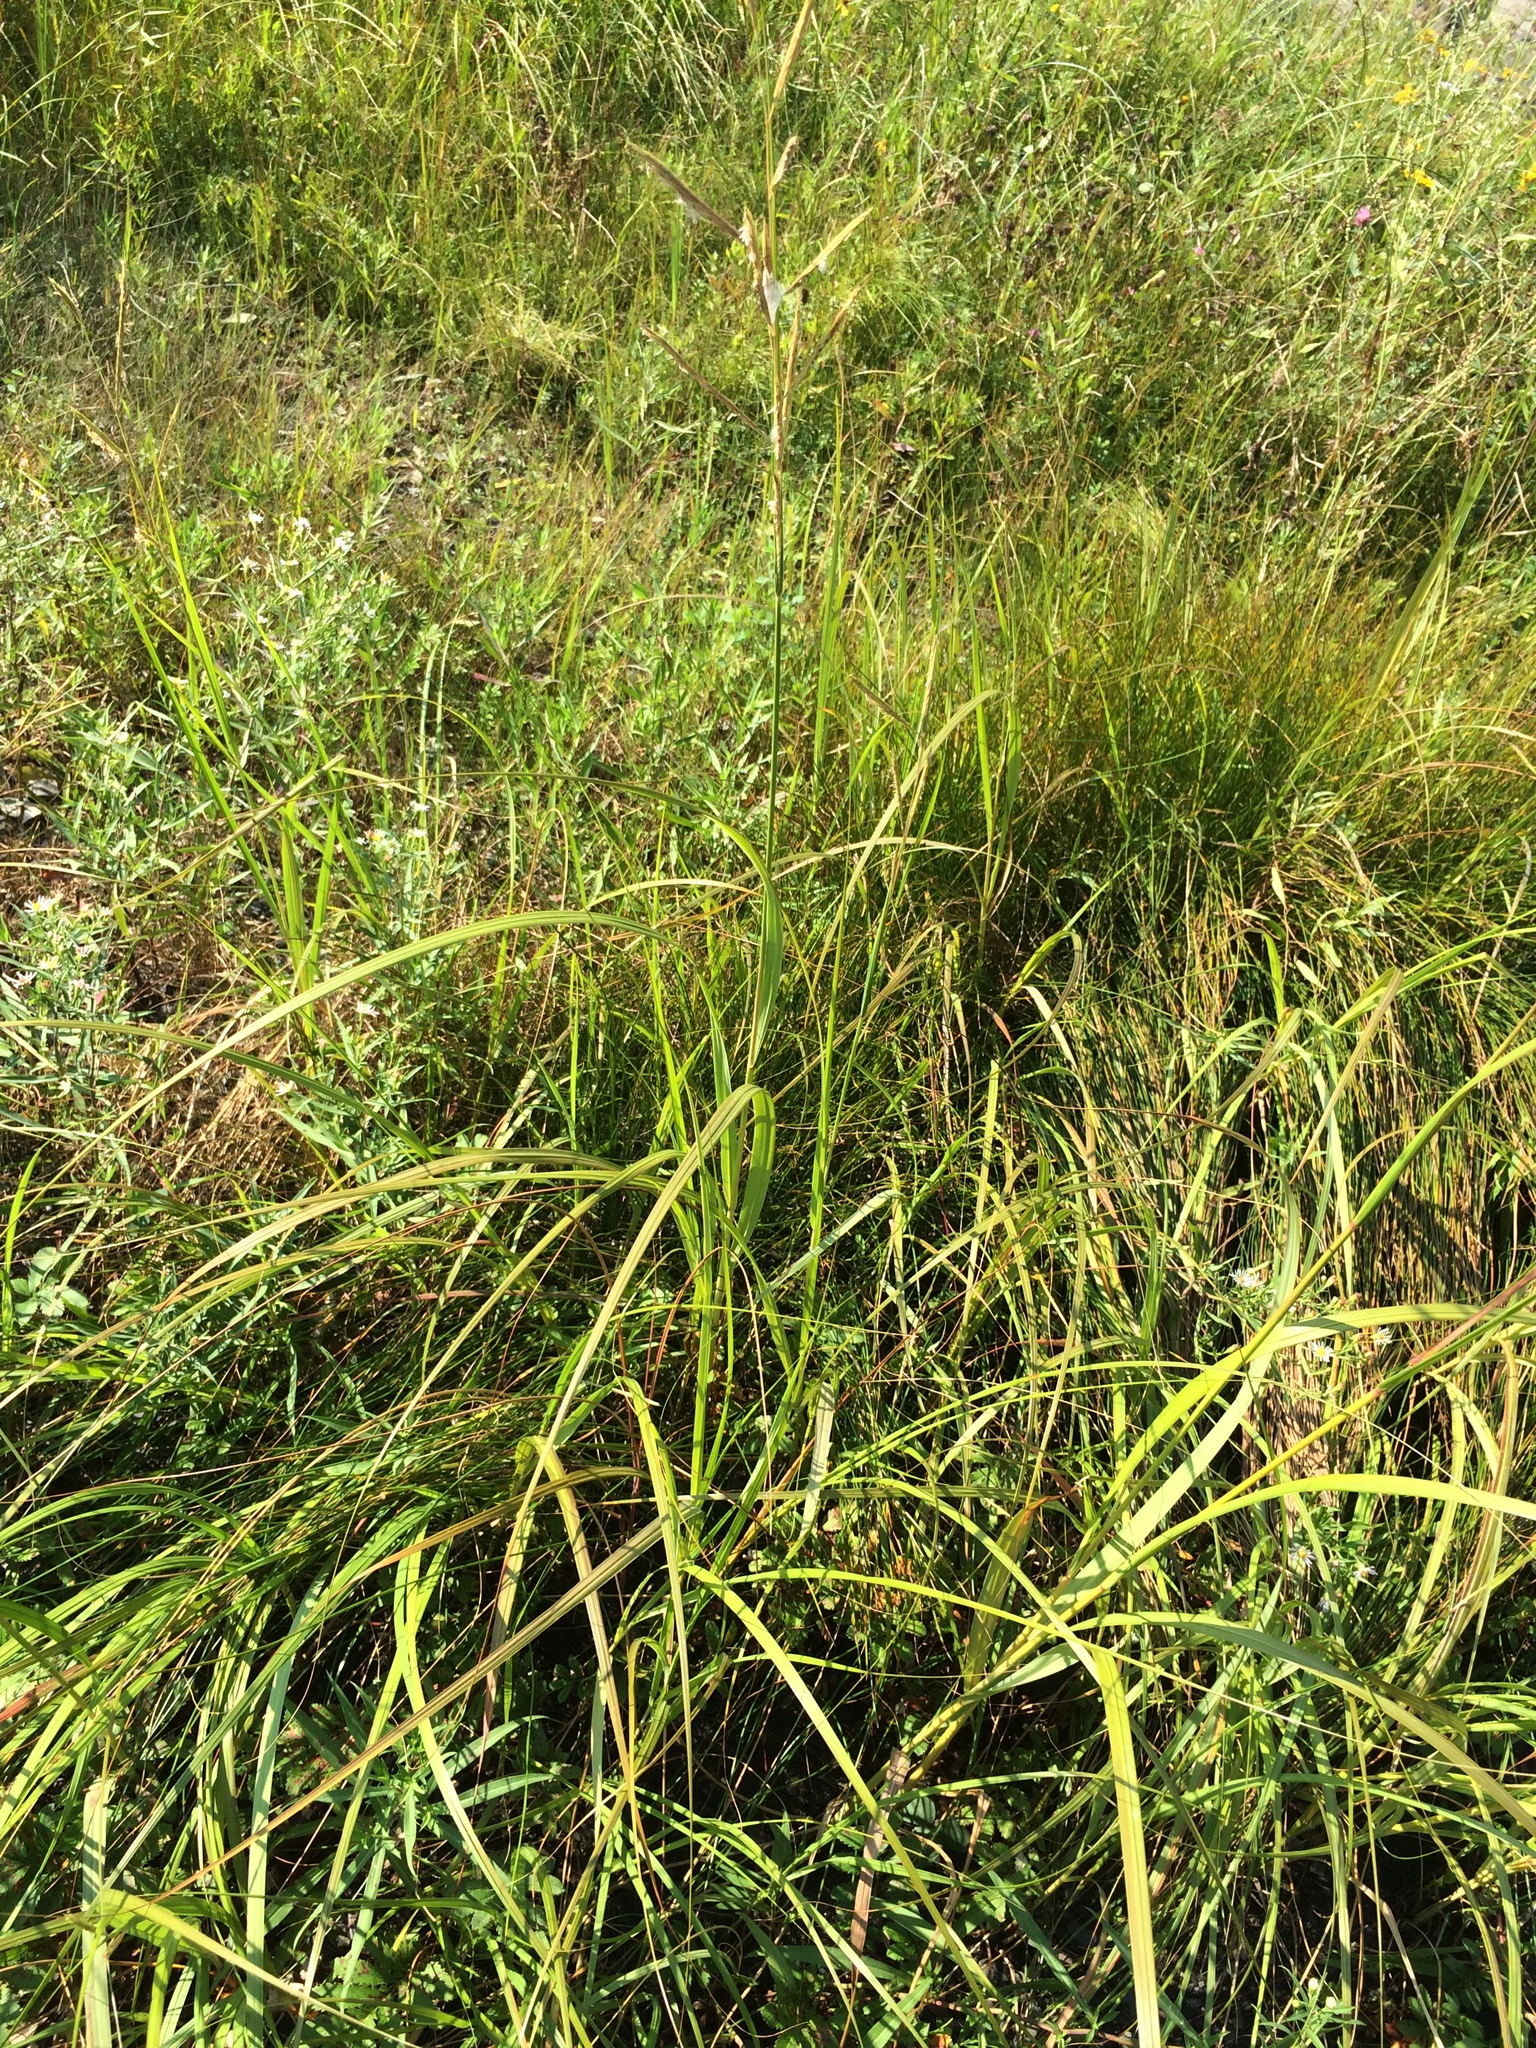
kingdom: Plantae
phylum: Tracheophyta
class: Liliopsida
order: Poales
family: Poaceae
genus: Sporobolus
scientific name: Sporobolus michauxianus
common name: Freshwater cordgrass
